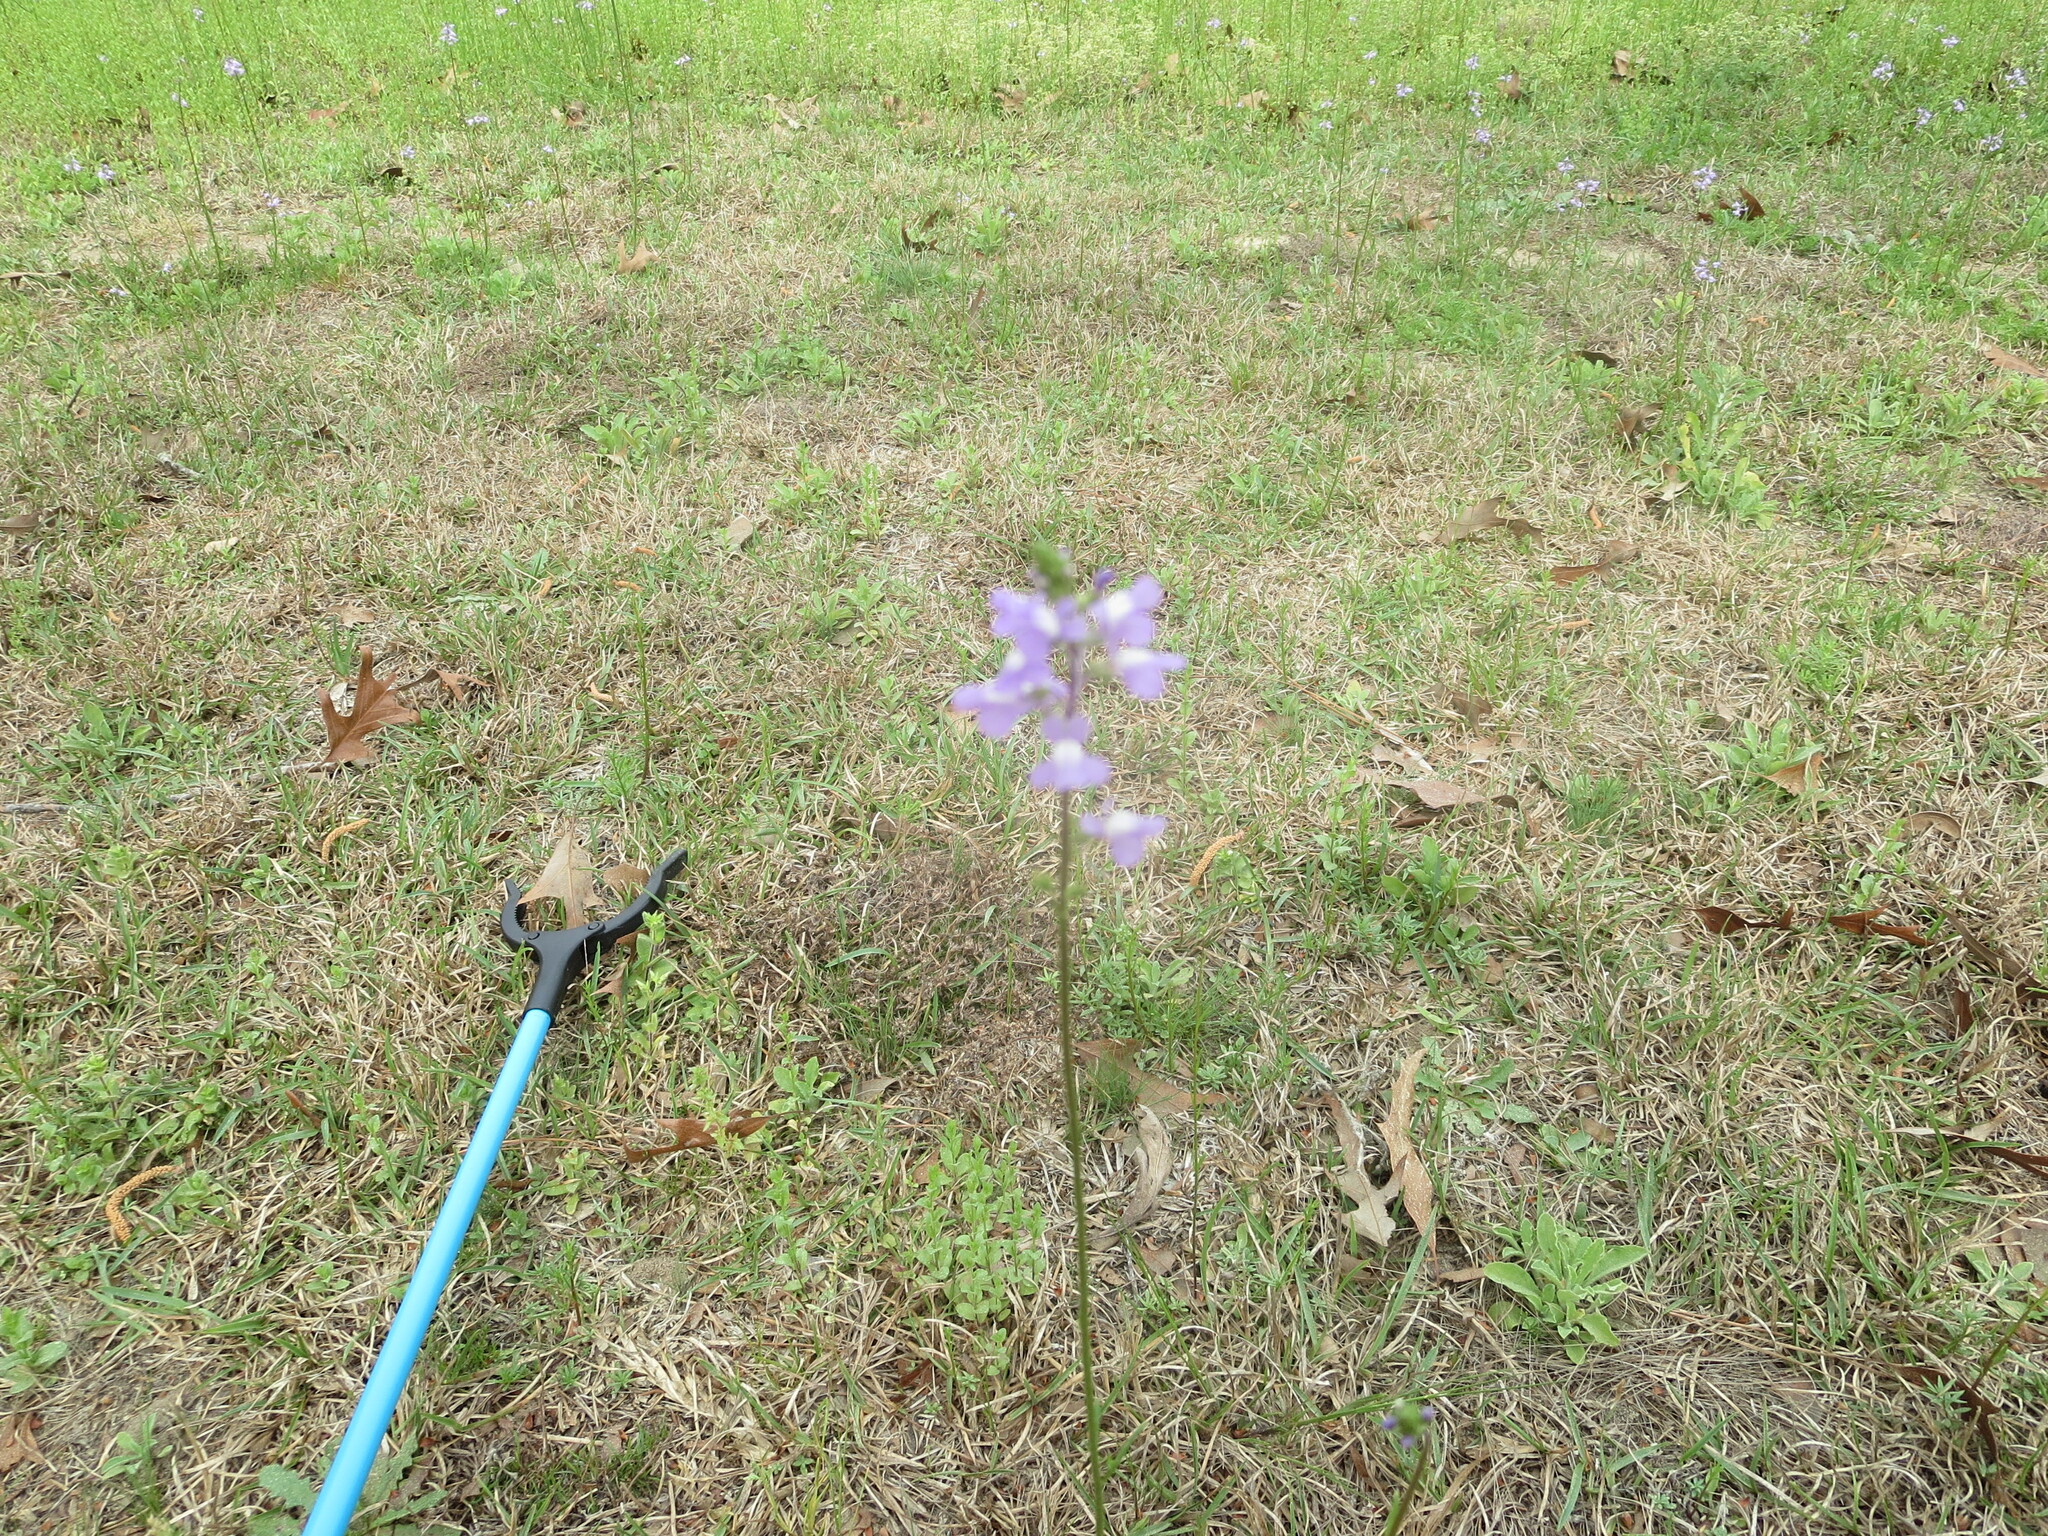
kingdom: Plantae
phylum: Tracheophyta
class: Magnoliopsida
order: Lamiales
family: Plantaginaceae
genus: Nuttallanthus
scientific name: Nuttallanthus canadensis
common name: Blue toadflax
